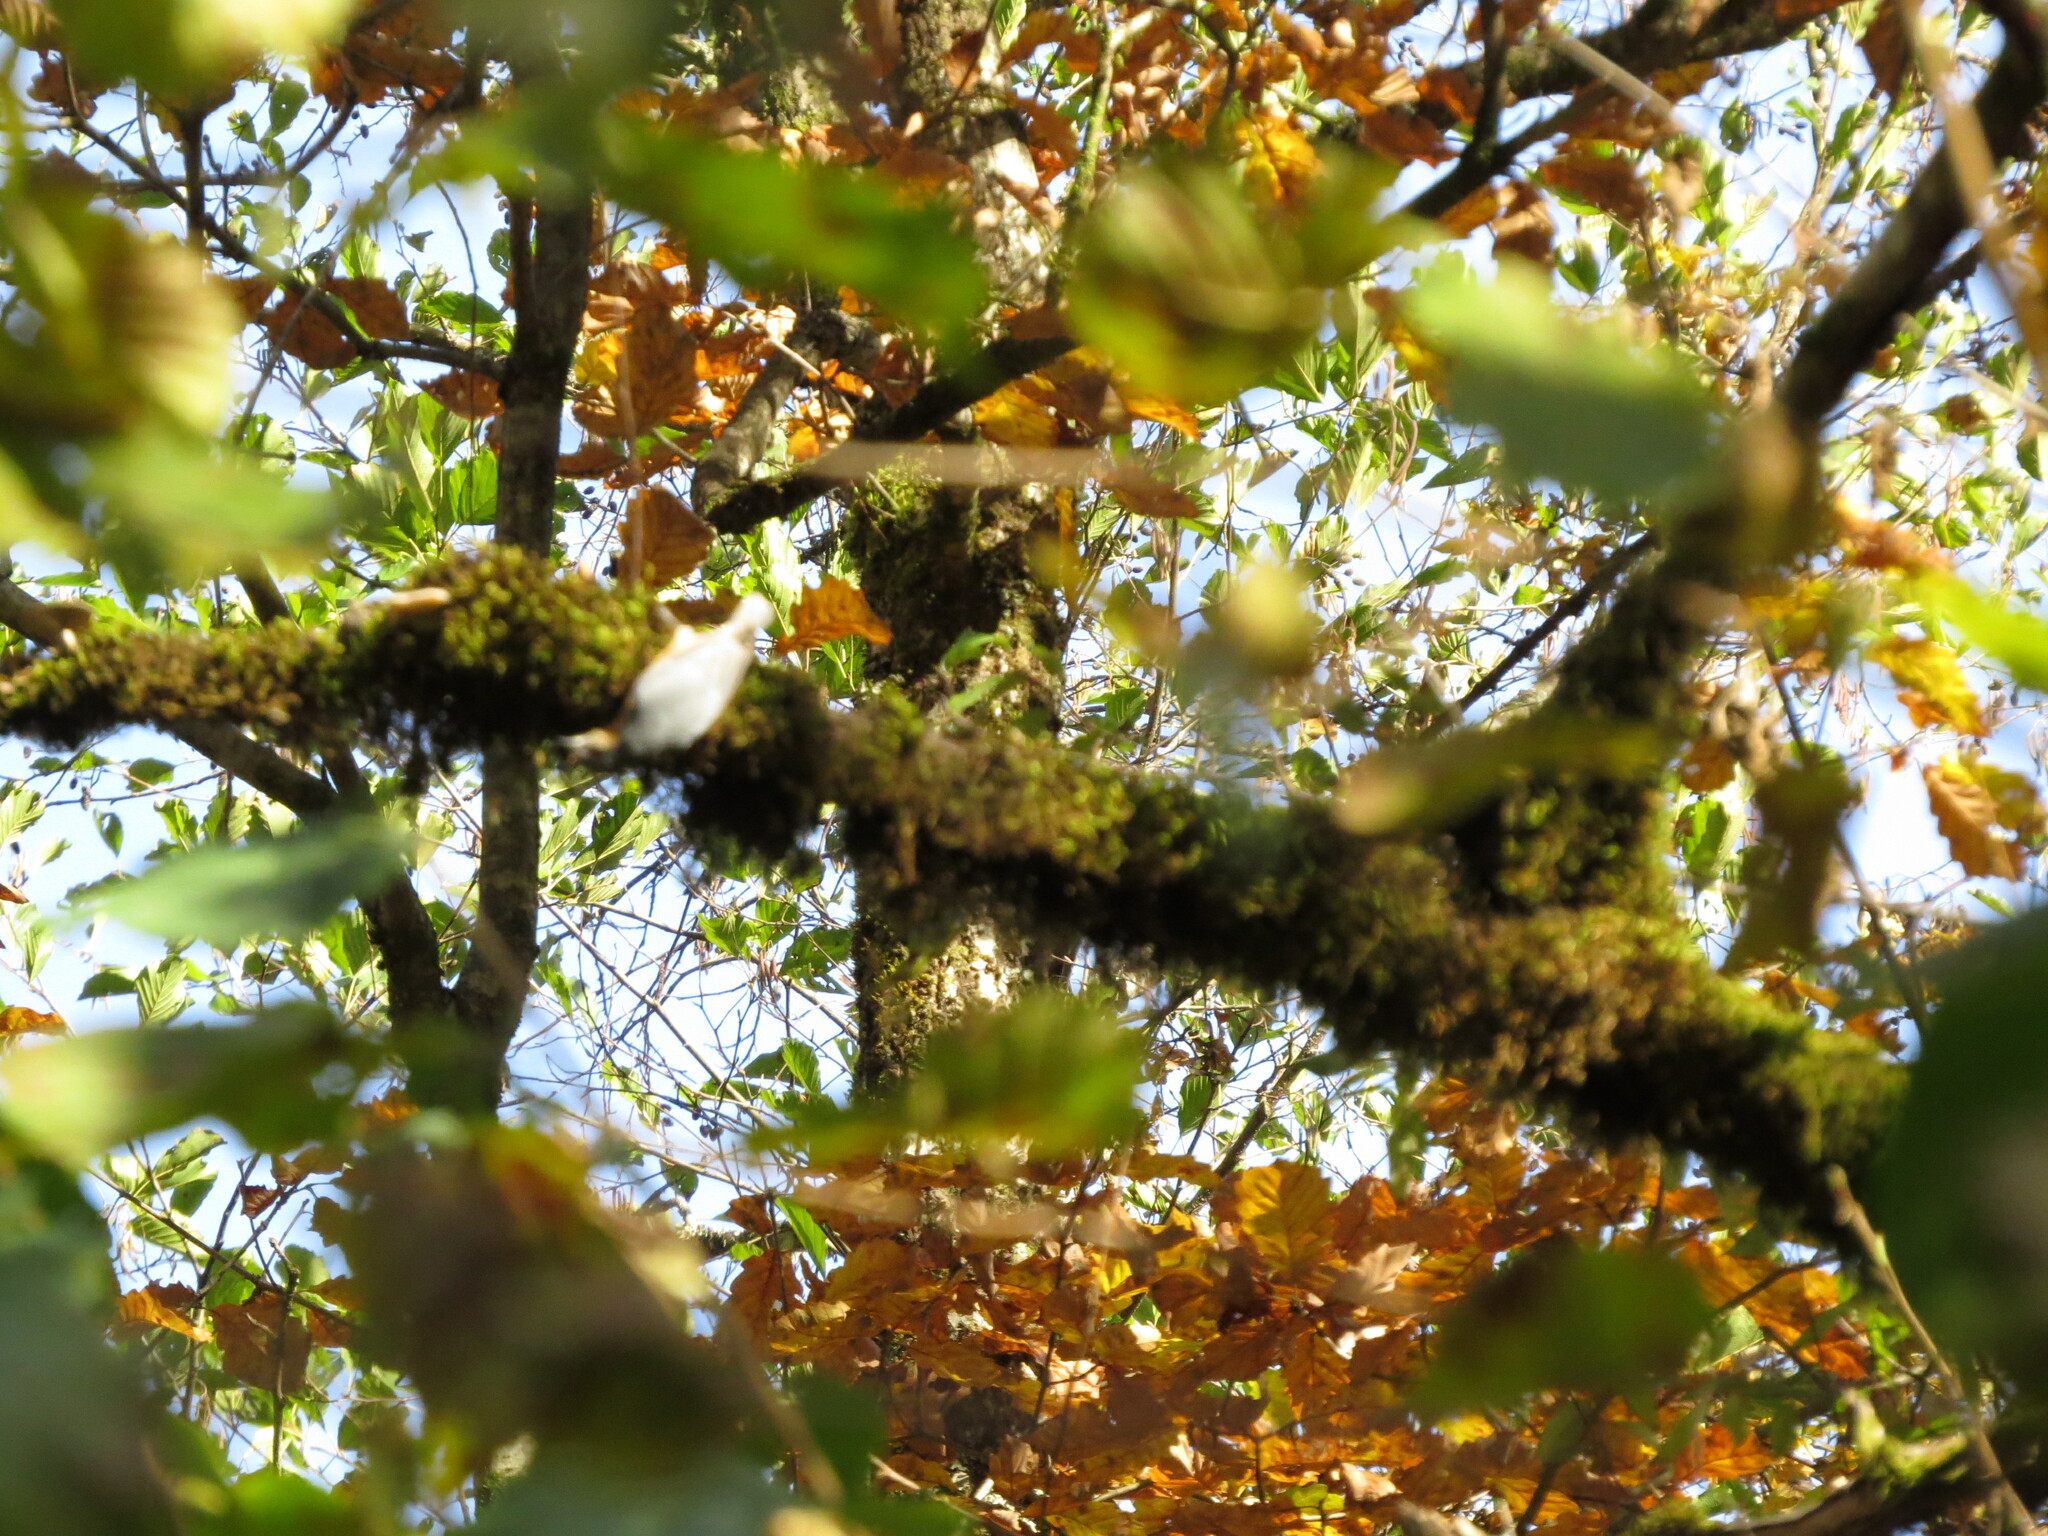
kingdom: Animalia
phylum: Chordata
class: Aves
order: Passeriformes
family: Sittidae
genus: Sitta
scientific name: Sitta europaea
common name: Eurasian nuthatch
